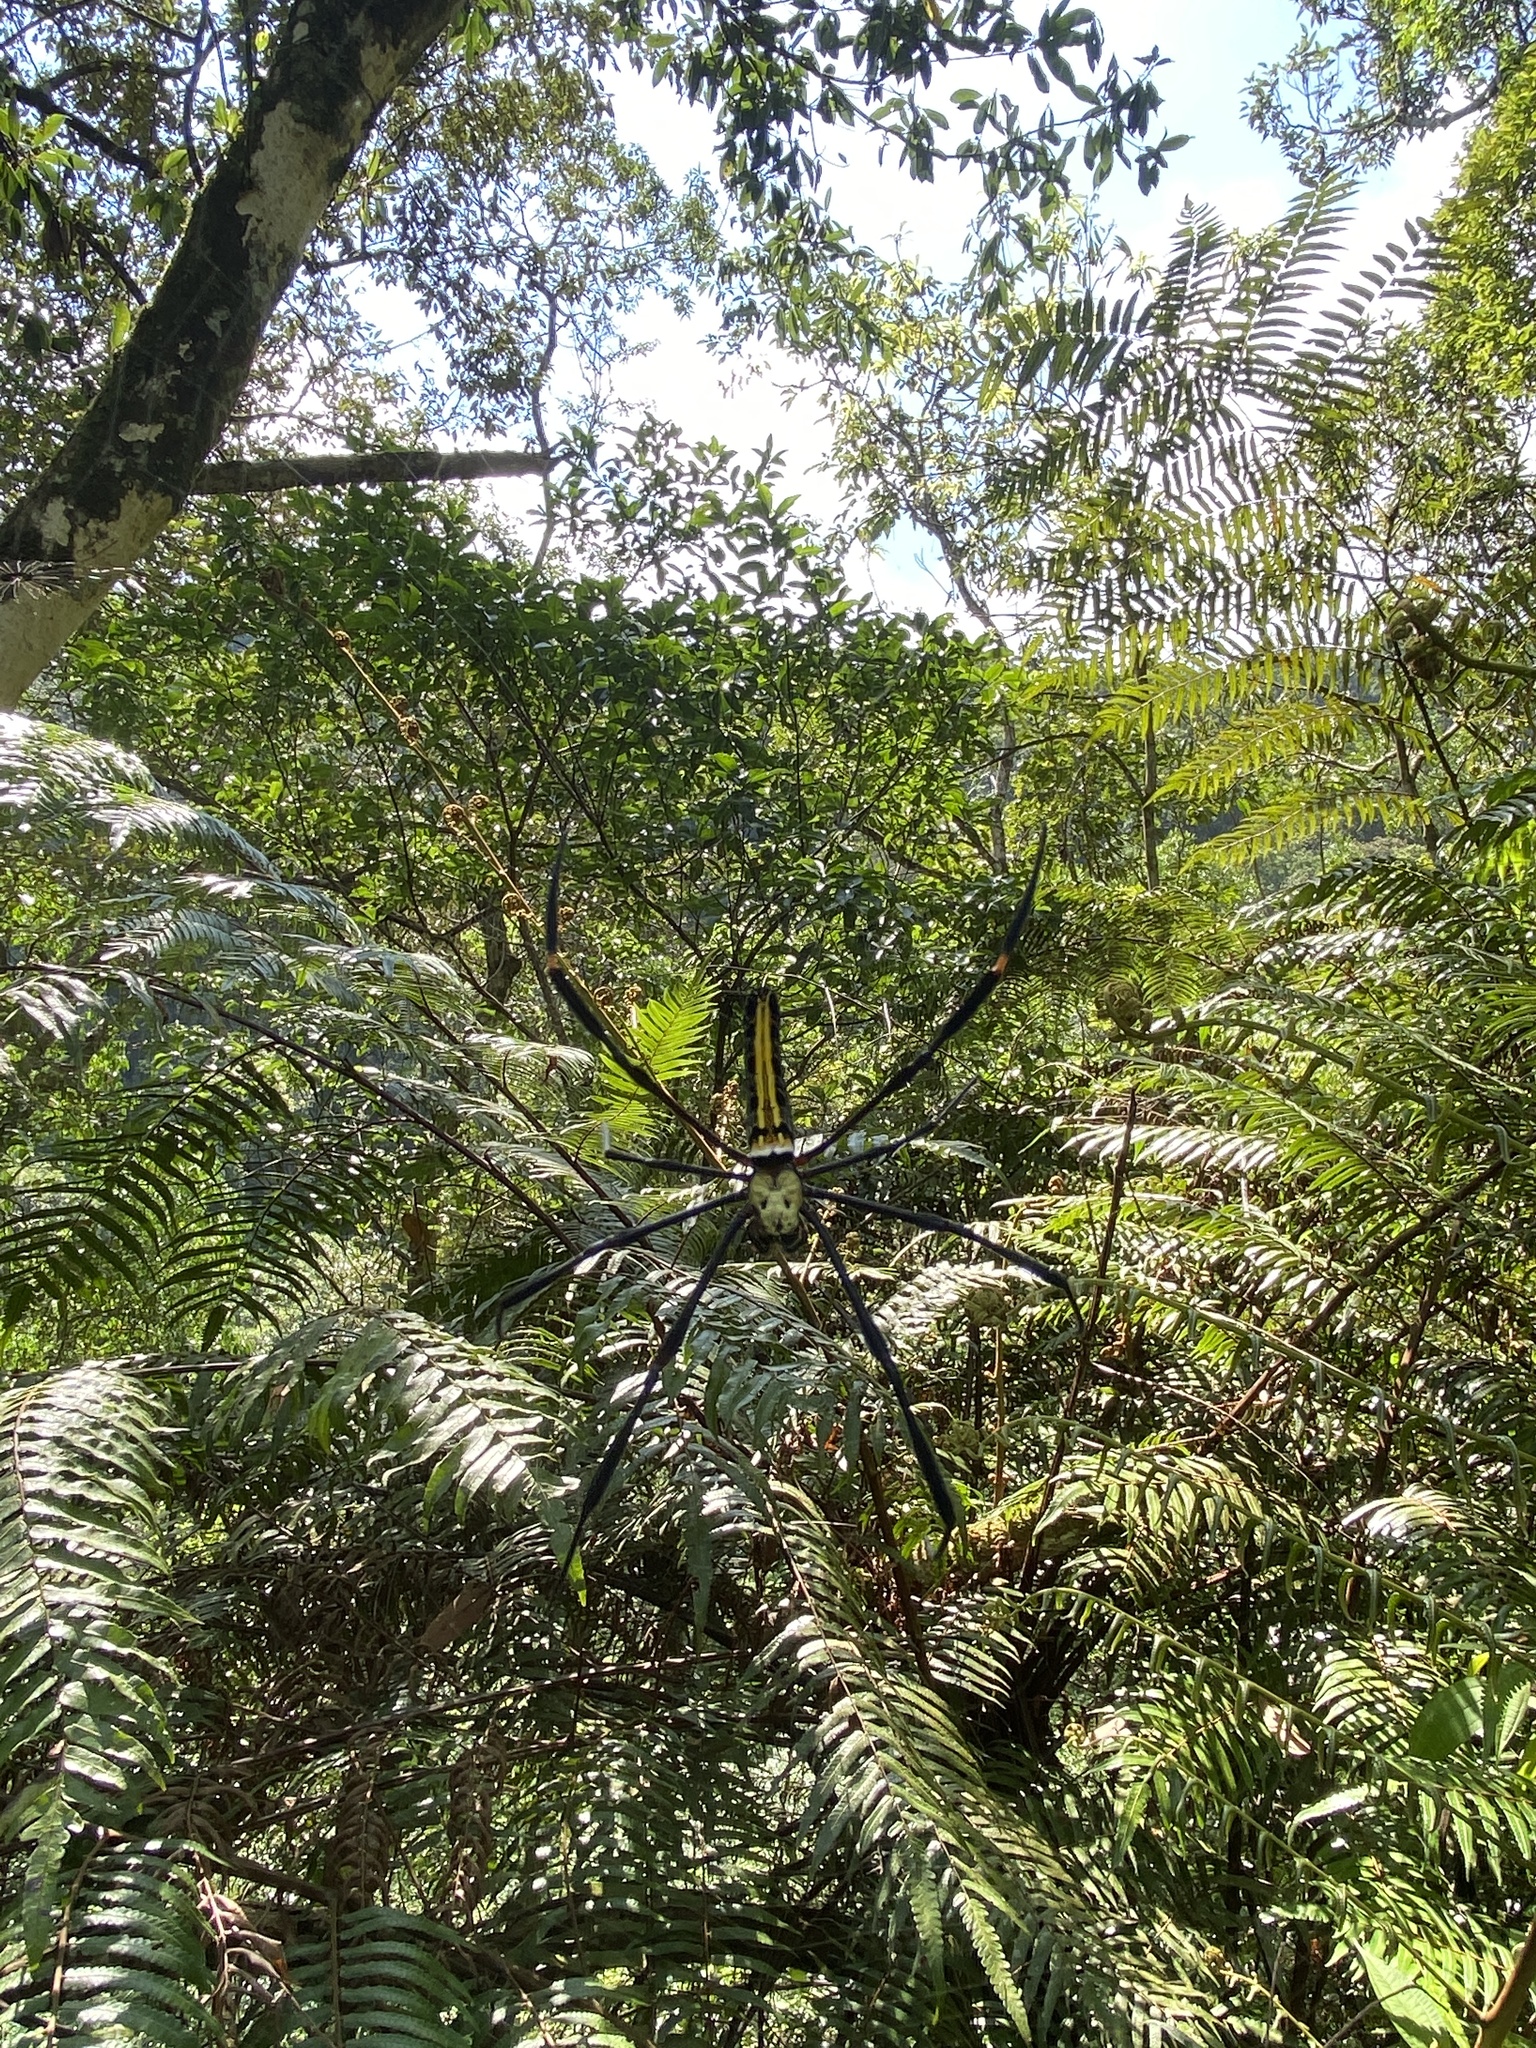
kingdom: Animalia
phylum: Arthropoda
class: Arachnida
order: Araneae
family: Araneidae
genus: Nephila
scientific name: Nephila pilipes
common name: Giant golden orb weaver
